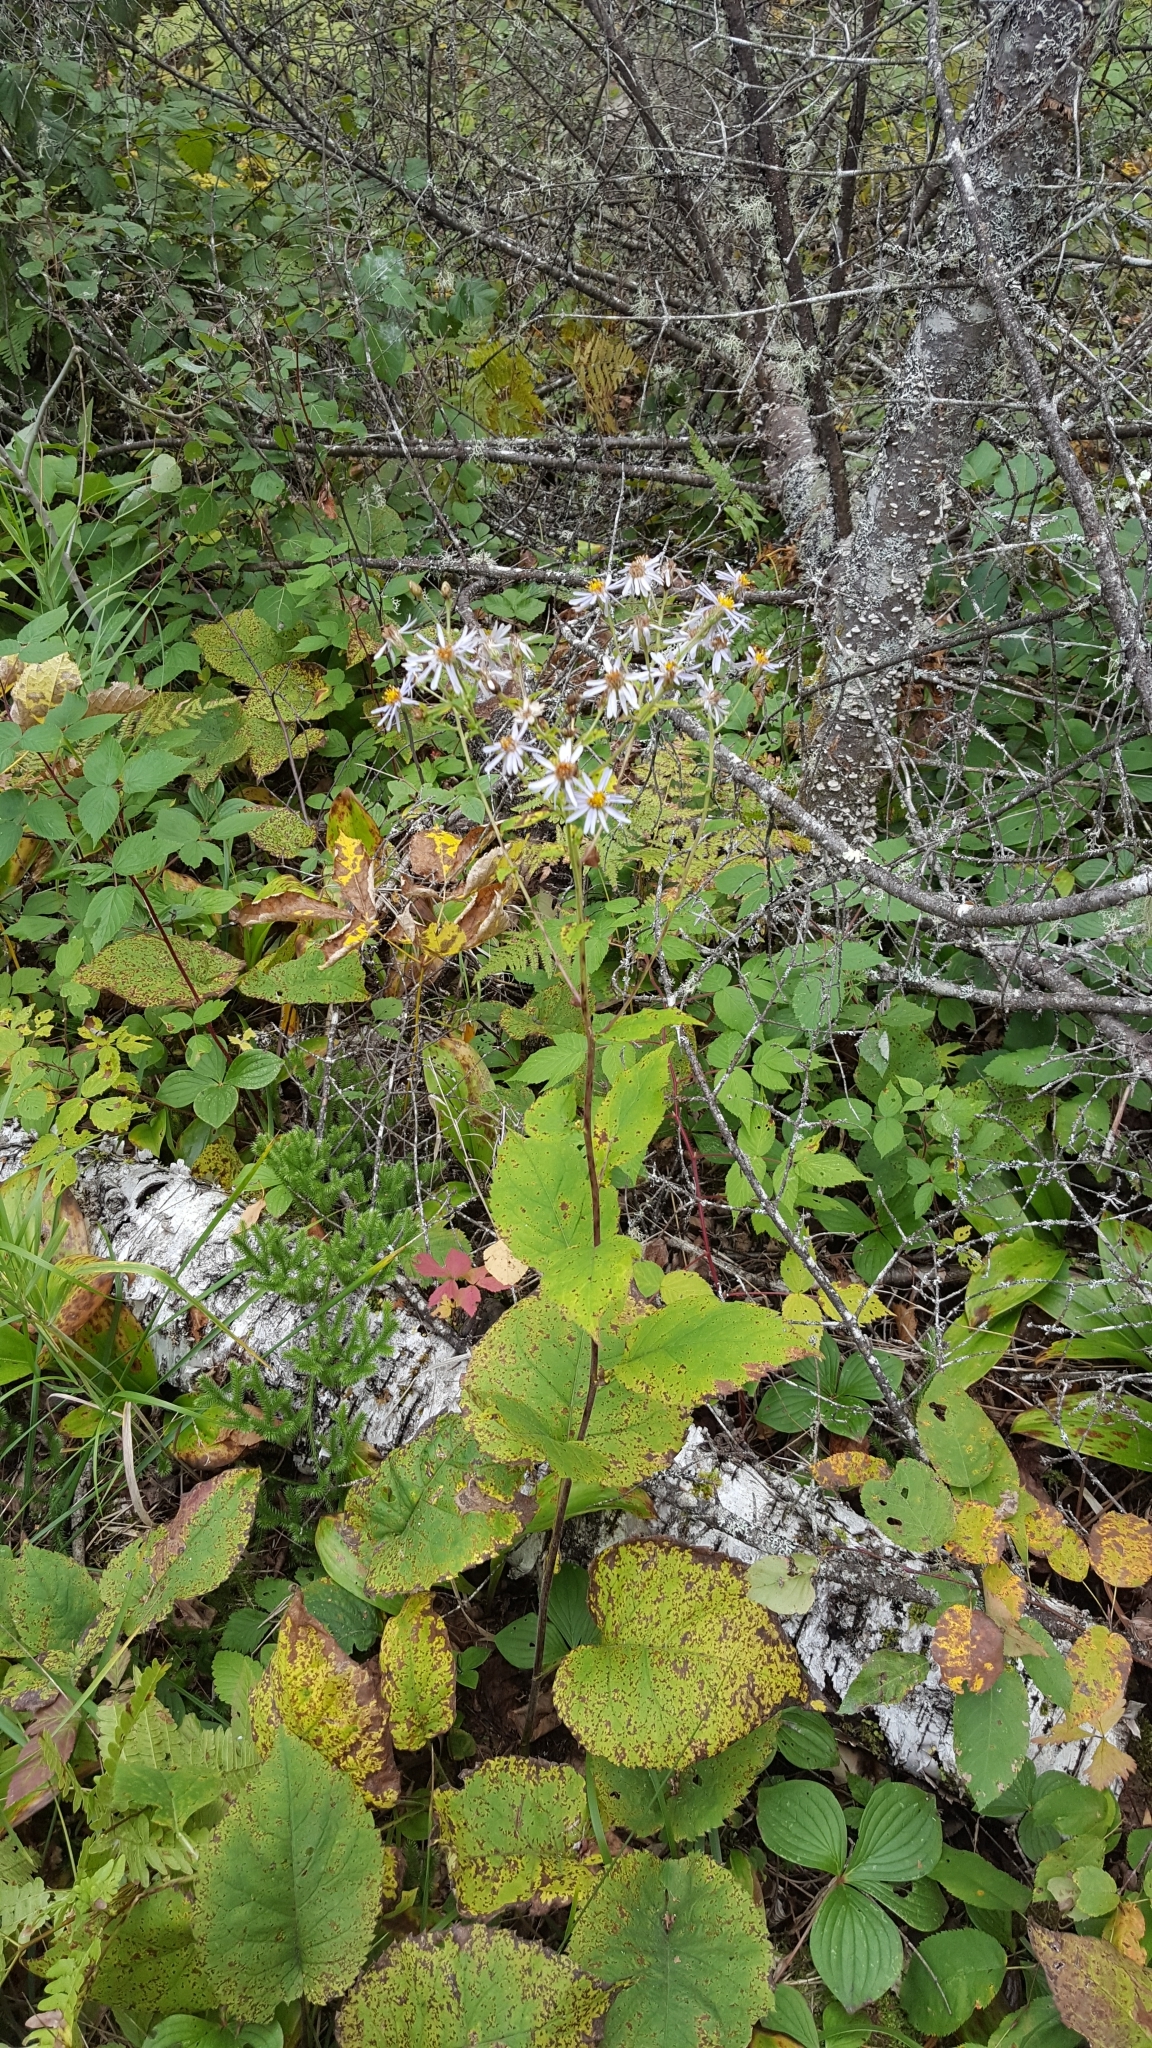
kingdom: Plantae
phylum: Tracheophyta
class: Magnoliopsida
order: Asterales
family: Asteraceae
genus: Eurybia
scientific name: Eurybia macrophylla
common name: Big-leaved aster
